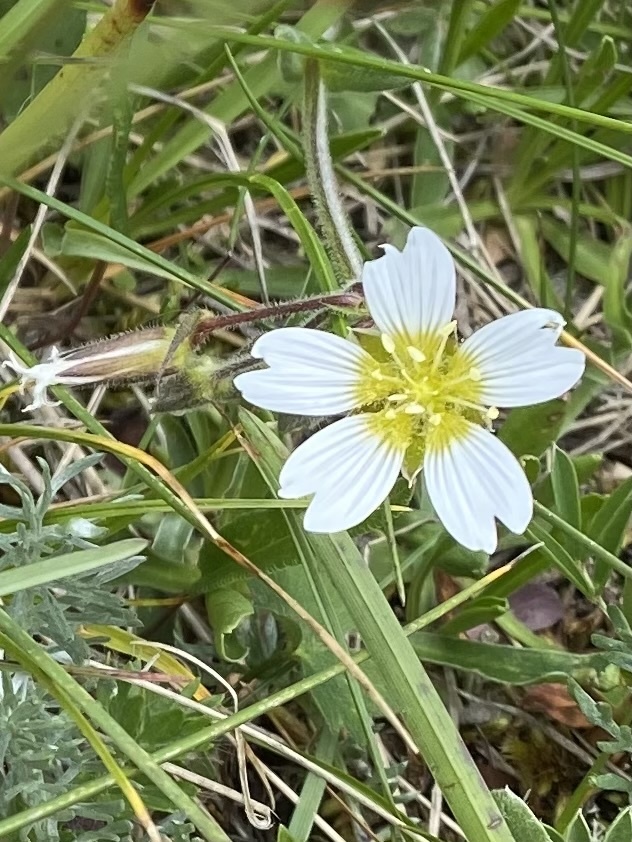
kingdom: Plantae
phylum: Tracheophyta
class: Magnoliopsida
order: Caryophyllales
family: Caryophyllaceae
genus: Dichodon
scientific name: Dichodon cerastoides
